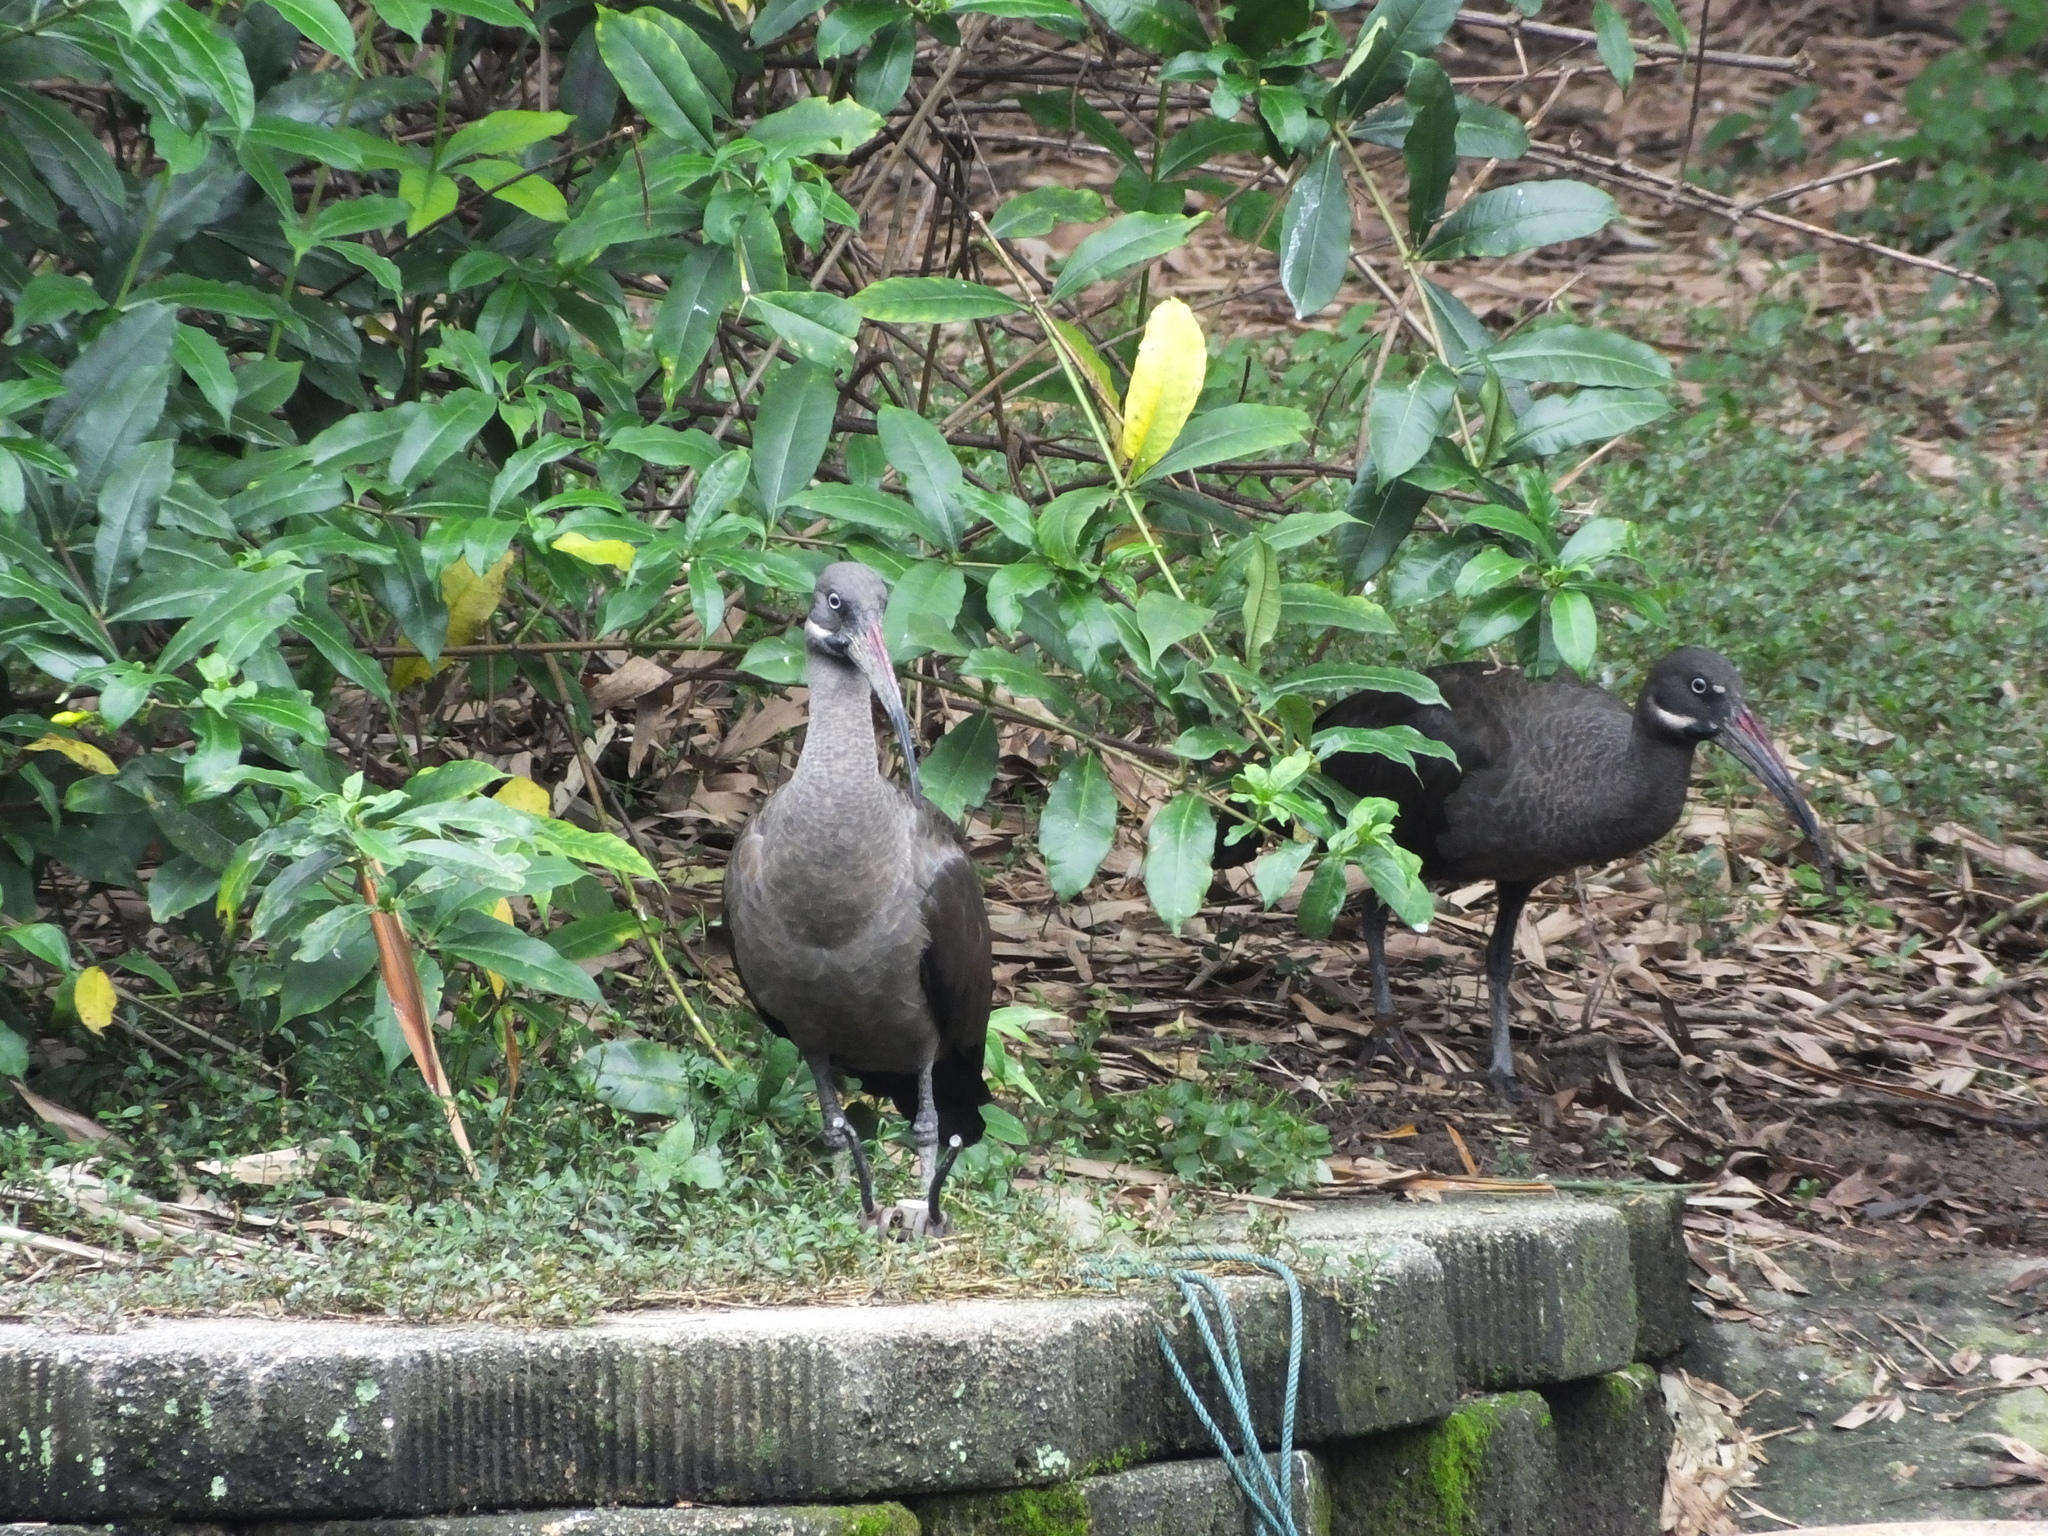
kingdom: Animalia
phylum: Chordata
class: Aves
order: Pelecaniformes
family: Threskiornithidae
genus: Bostrychia
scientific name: Bostrychia hagedash
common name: Hadada ibis
